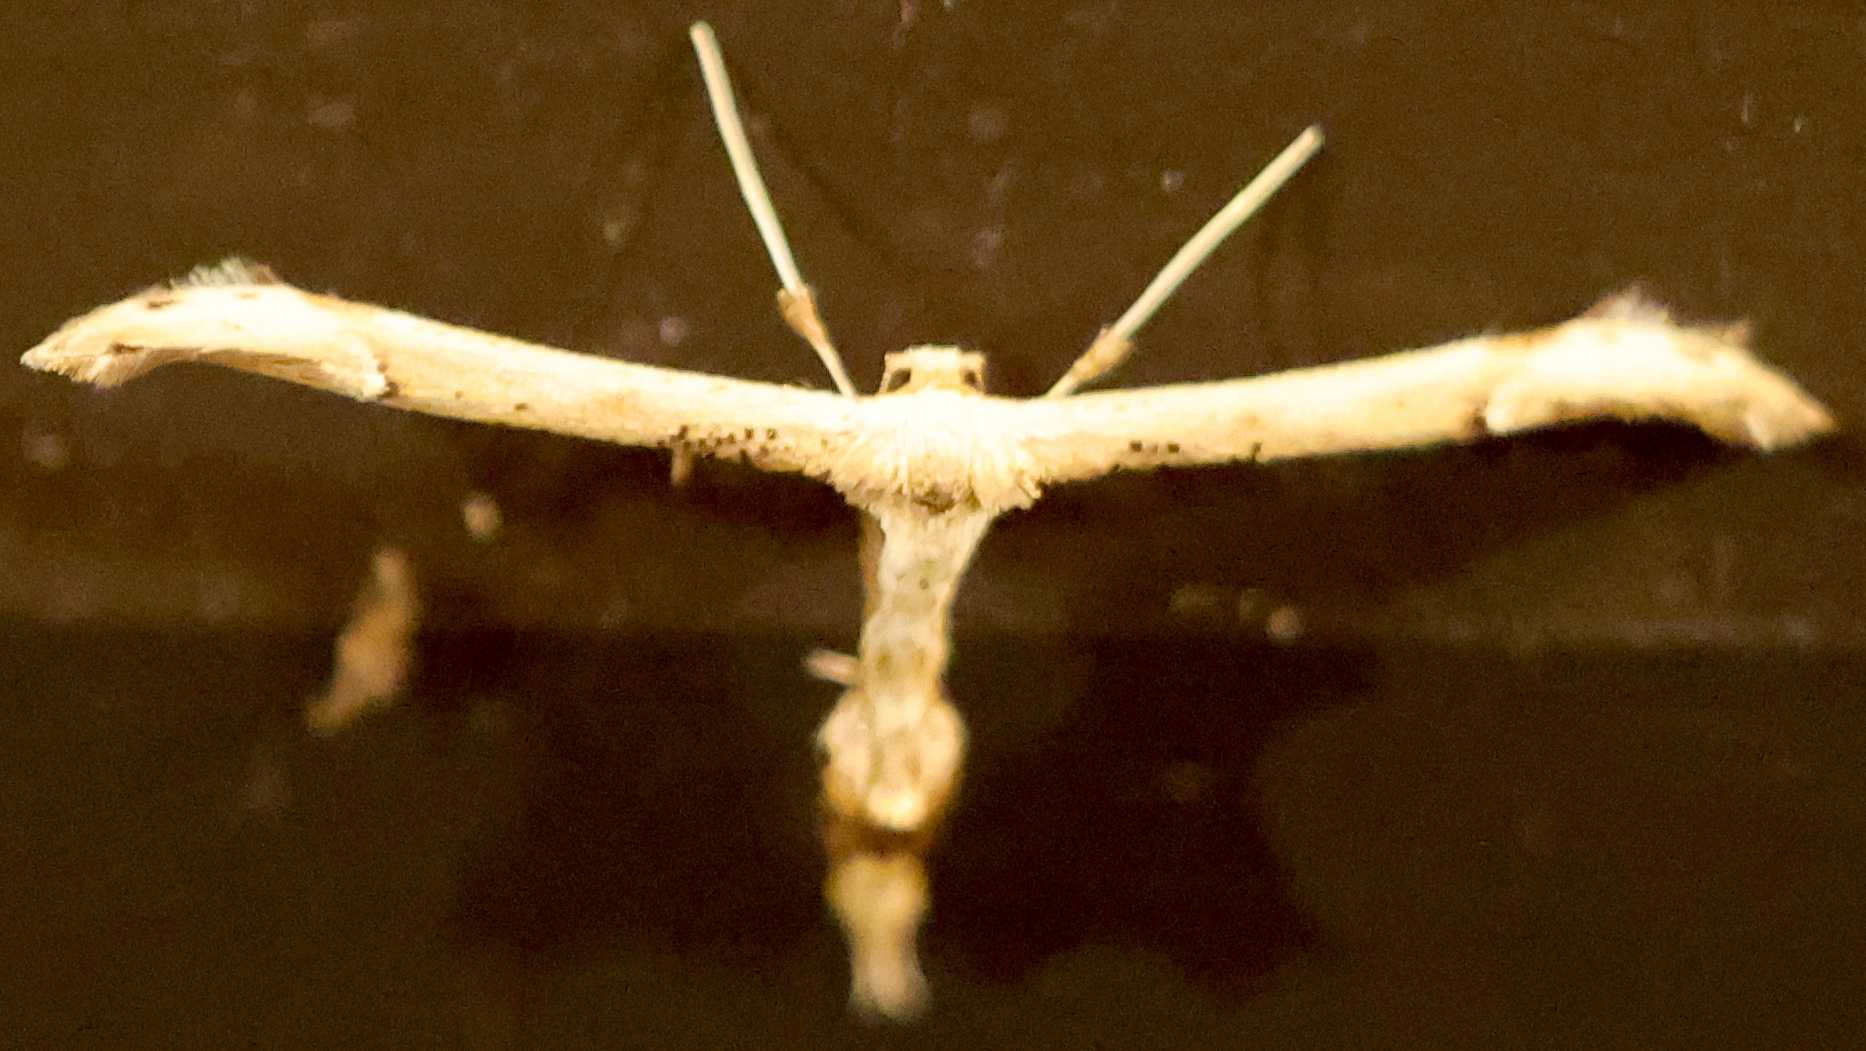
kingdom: Animalia
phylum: Arthropoda
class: Insecta
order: Lepidoptera
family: Pterophoridae
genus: Oidaematophorus
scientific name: Oidaematophorus eupatorii
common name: Eupatorium plume moth
